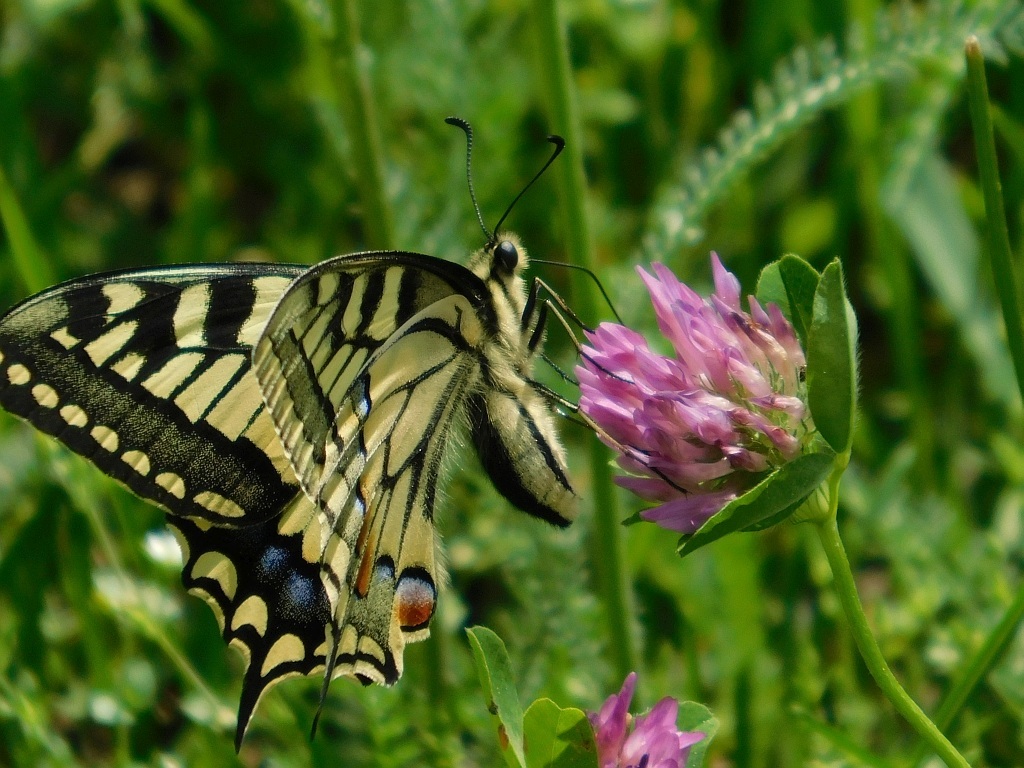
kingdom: Plantae
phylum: Tracheophyta
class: Magnoliopsida
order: Fabales
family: Fabaceae
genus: Trifolium
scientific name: Trifolium pratense
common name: Red clover
